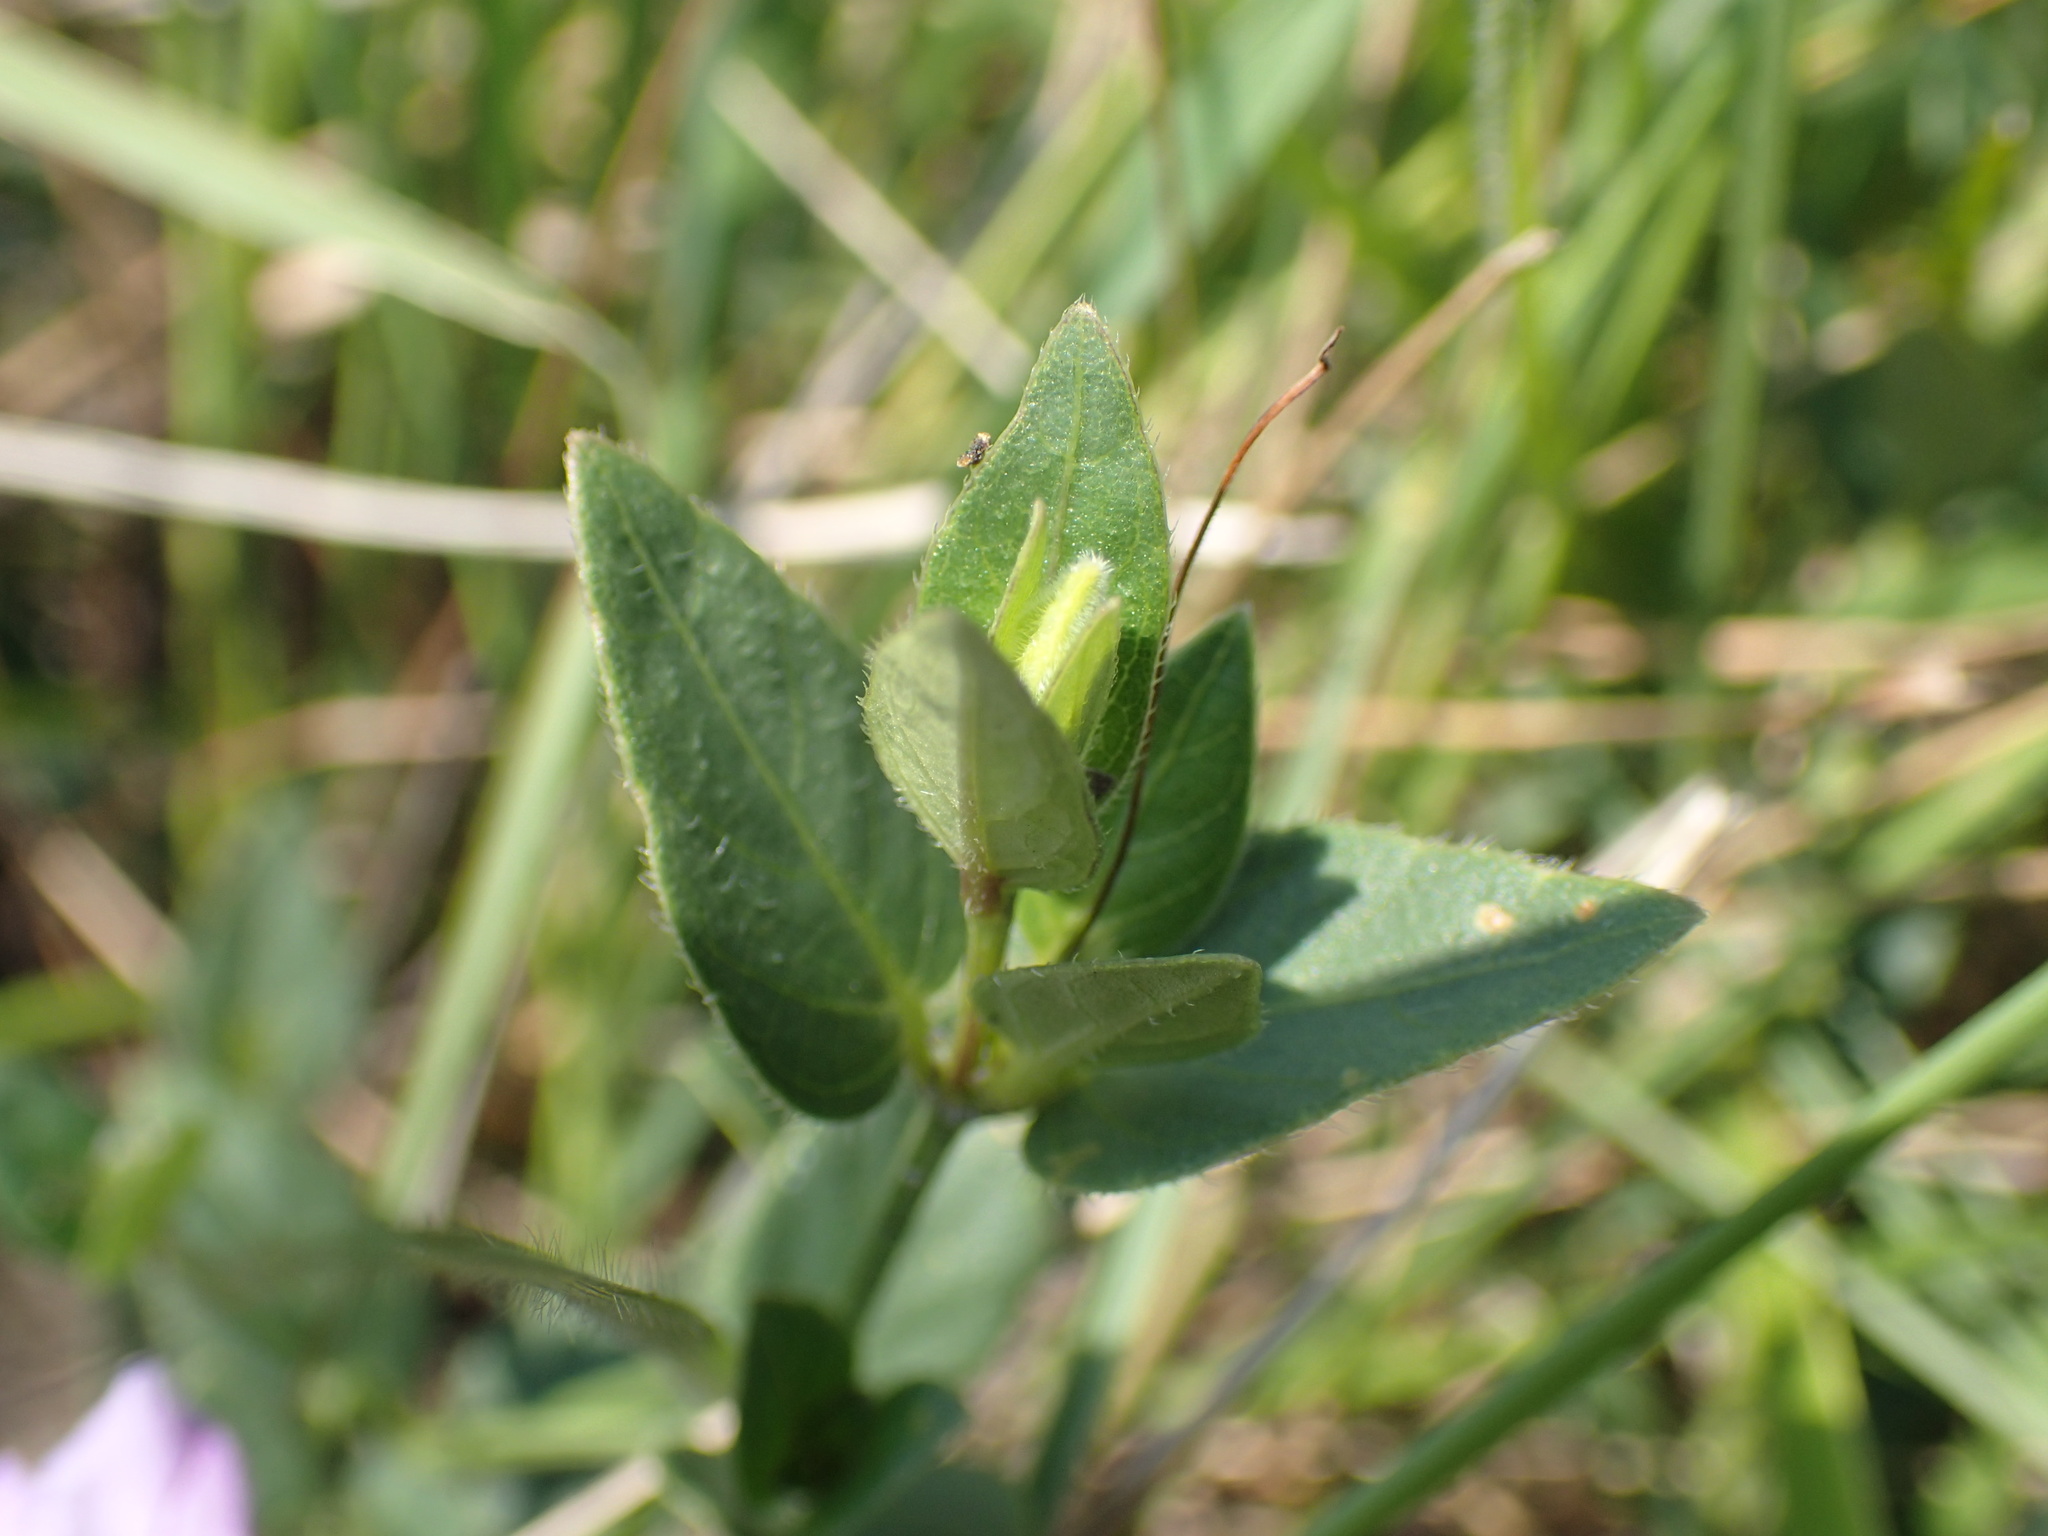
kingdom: Plantae
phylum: Tracheophyta
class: Magnoliopsida
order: Lamiales
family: Acanthaceae
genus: Ruellia
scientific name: Ruellia cordata
